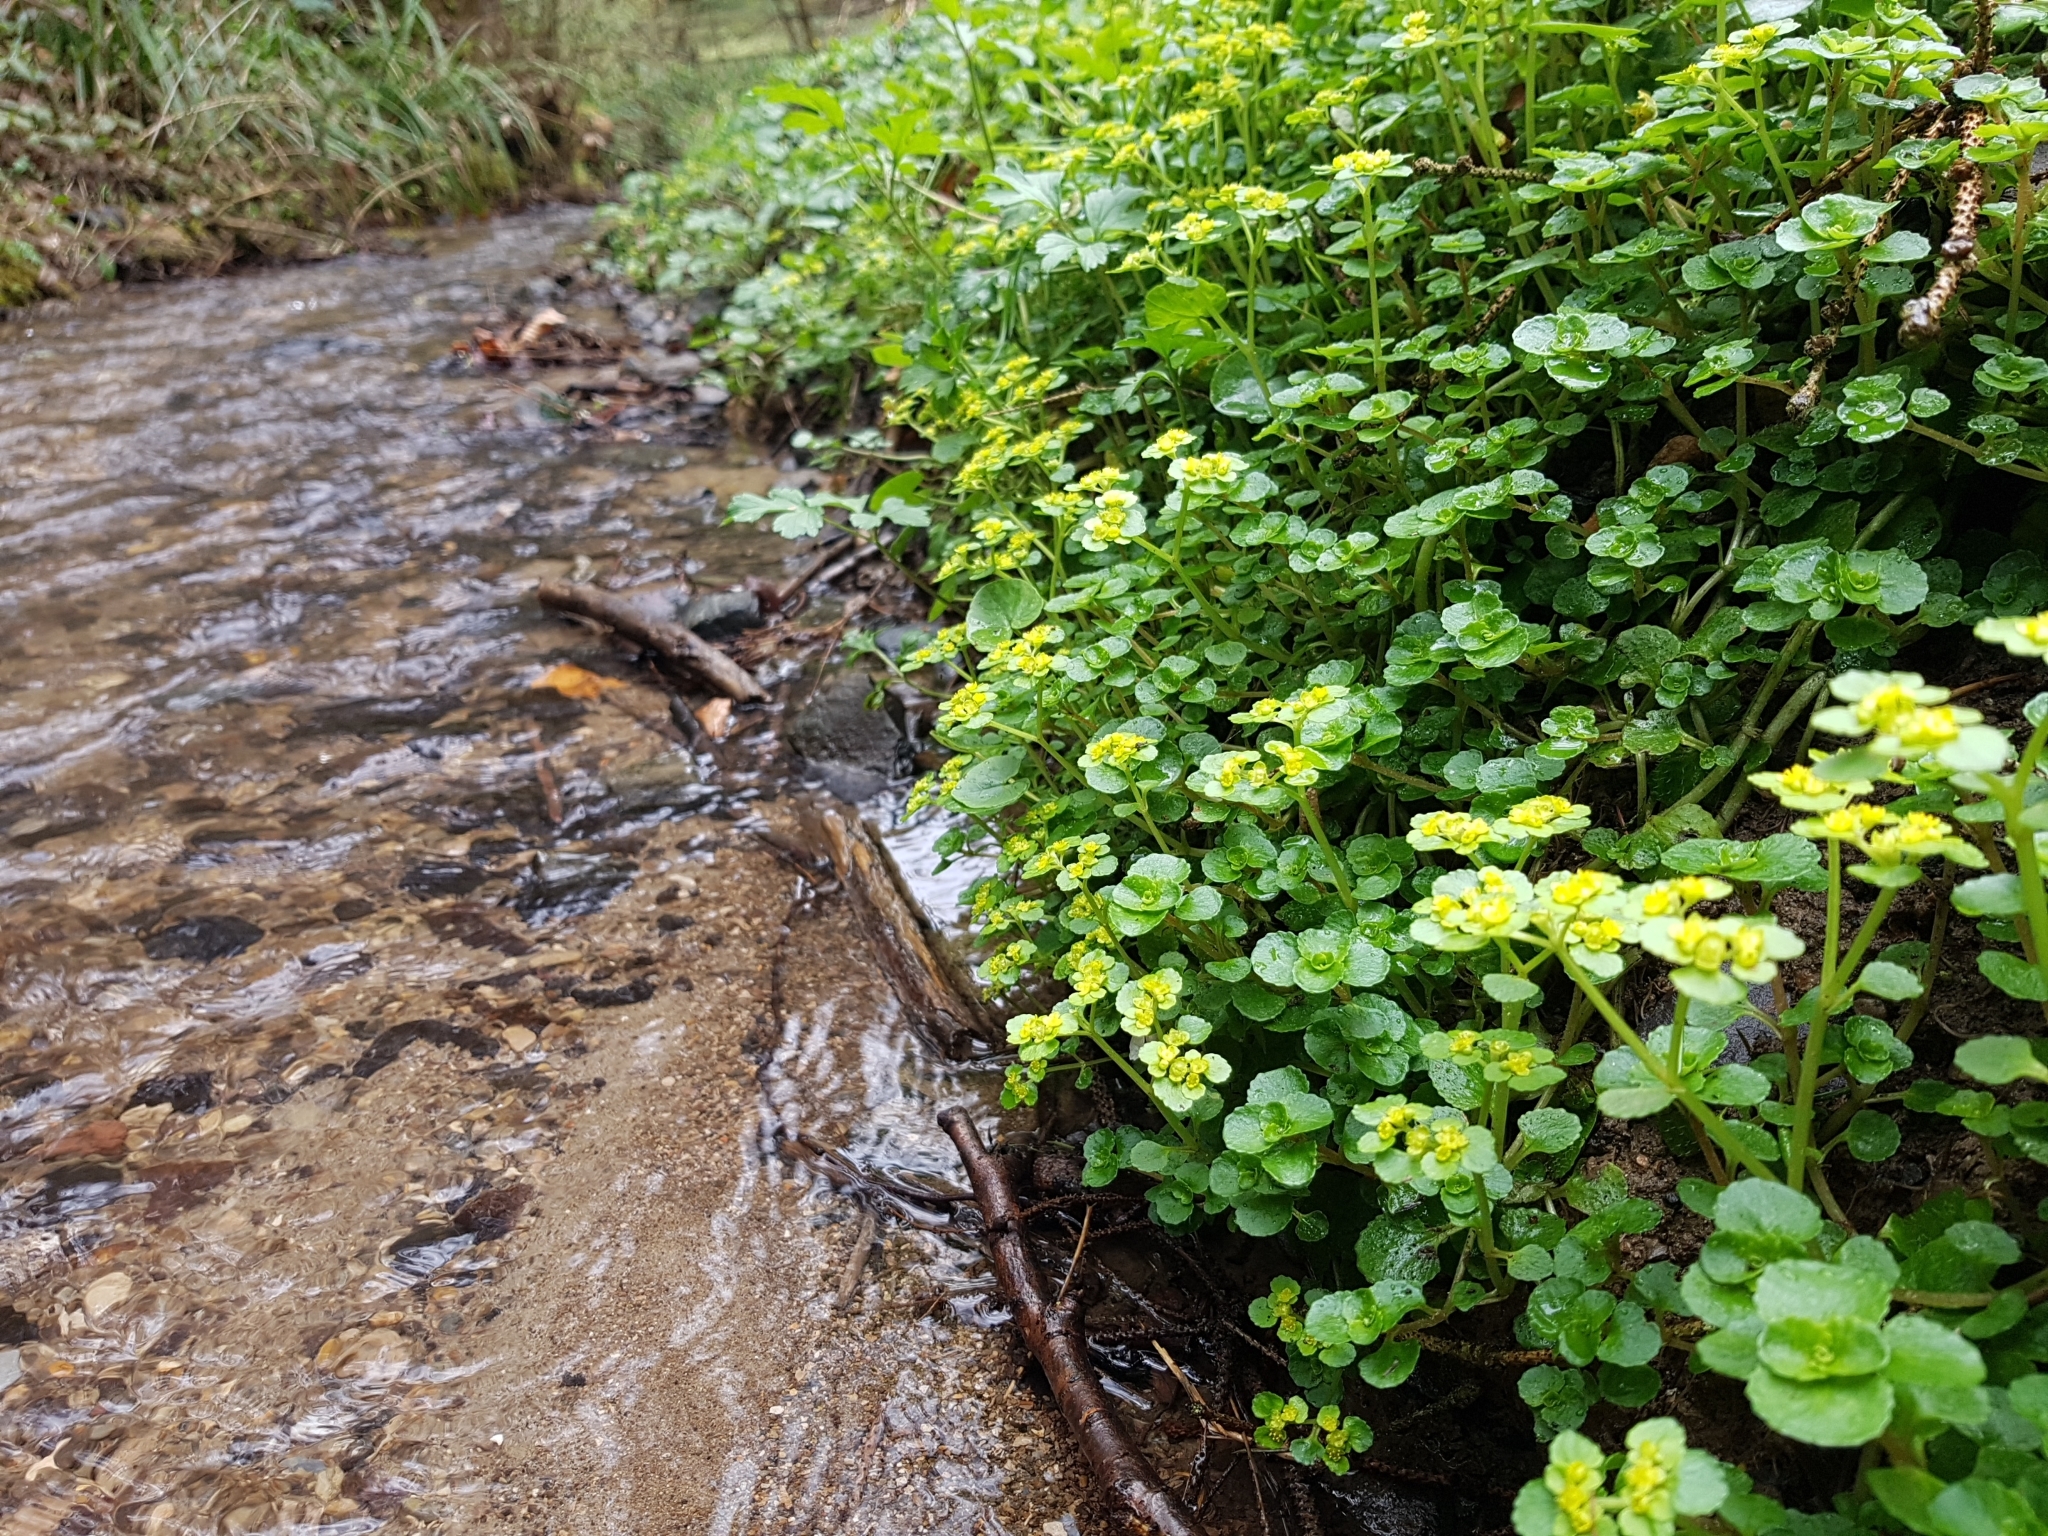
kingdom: Plantae
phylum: Tracheophyta
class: Magnoliopsida
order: Saxifragales
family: Saxifragaceae
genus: Chrysosplenium
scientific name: Chrysosplenium alternifolium
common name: Alternate-leaved golden-saxifrage
